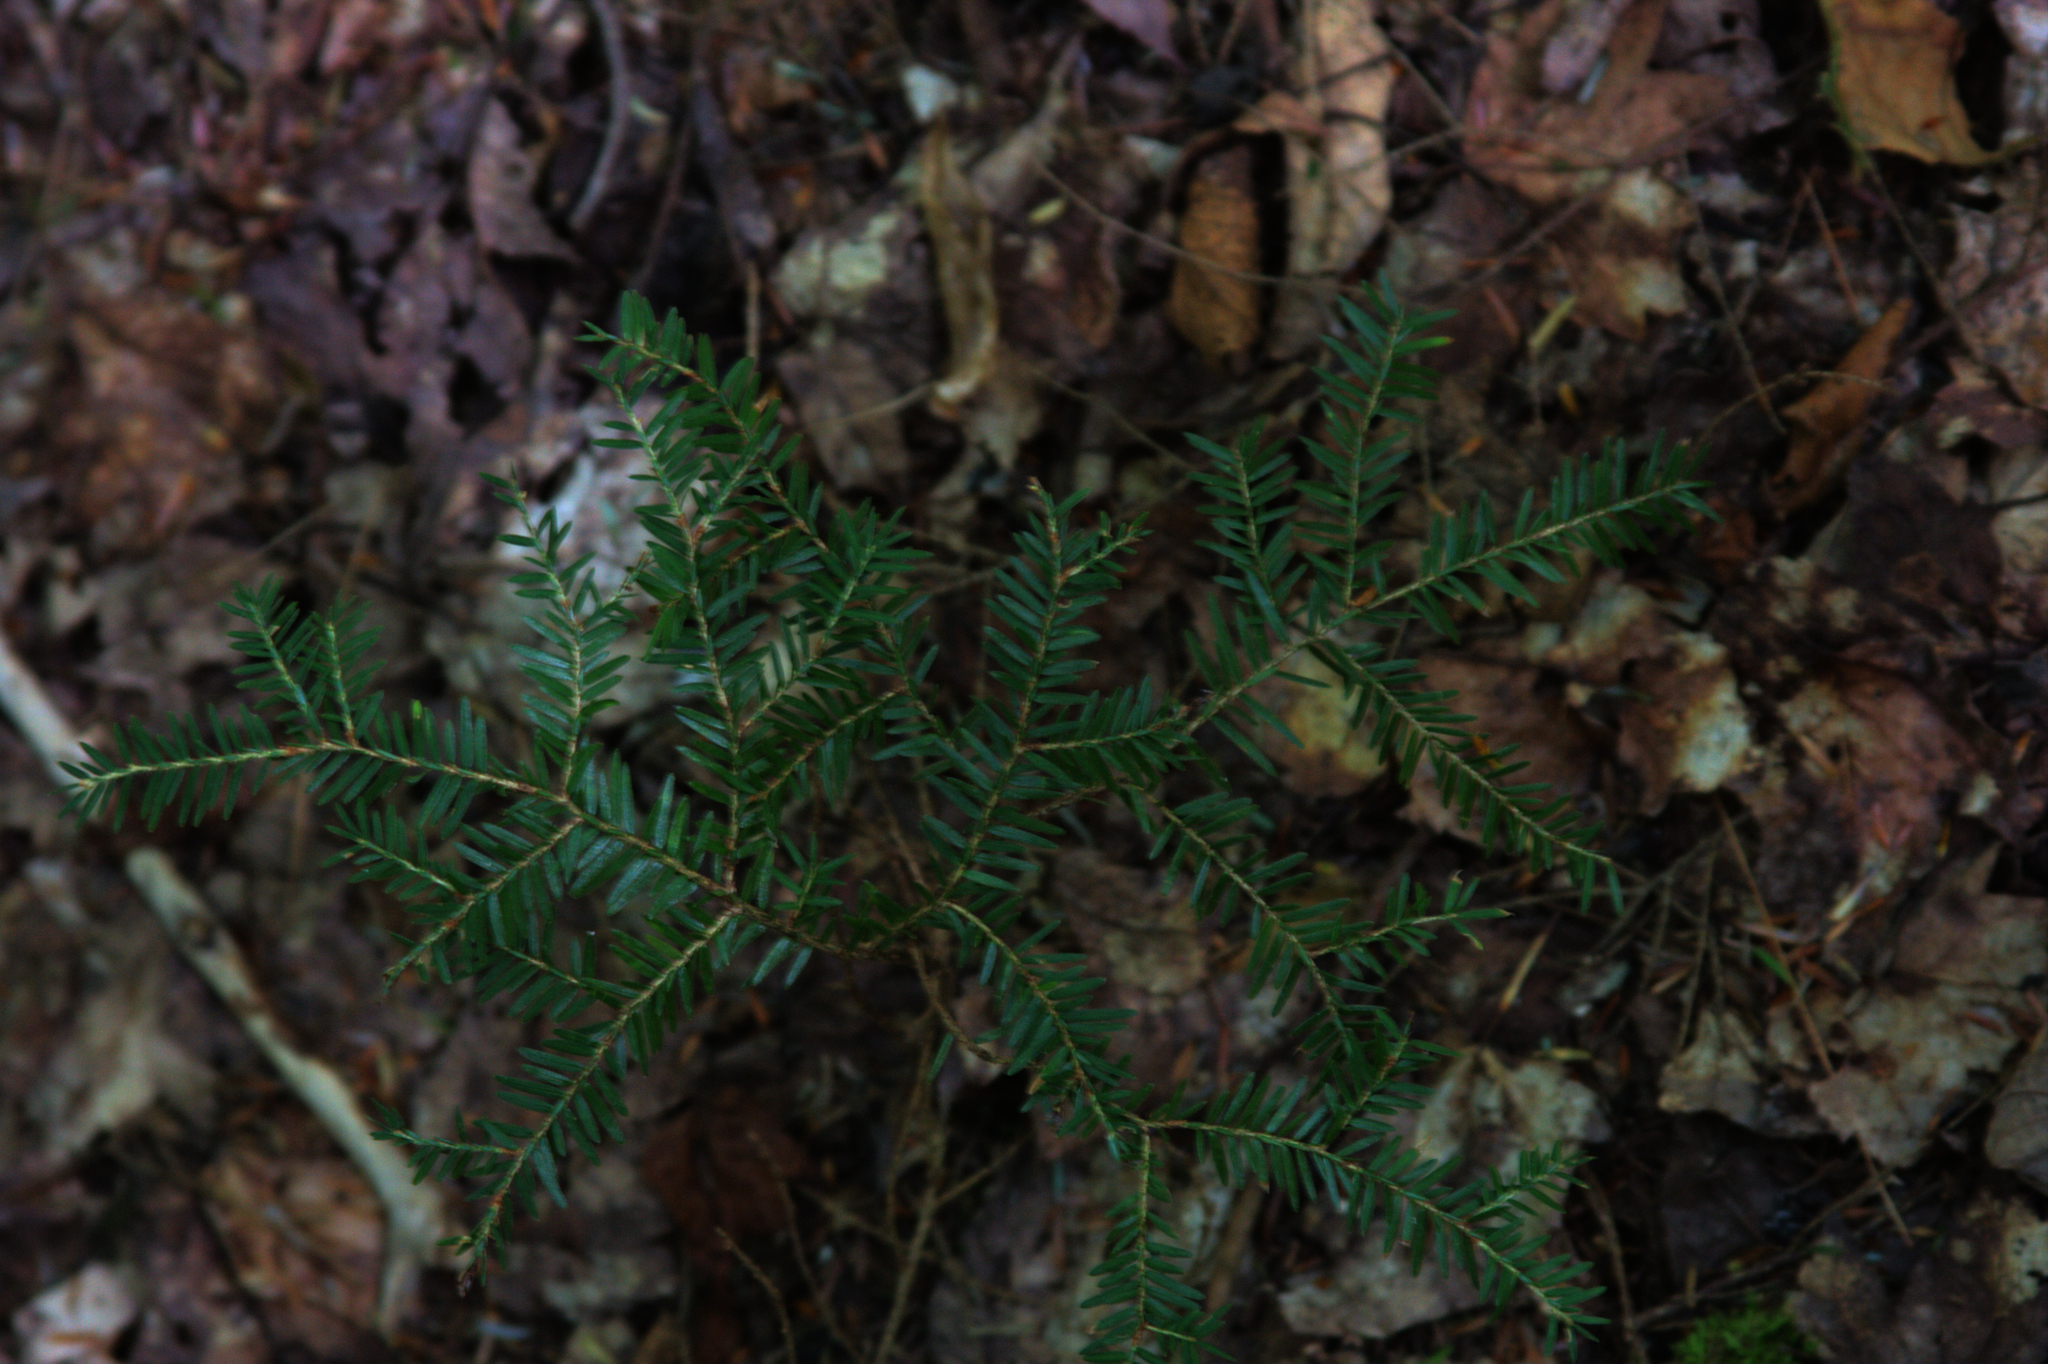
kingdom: Plantae
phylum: Tracheophyta
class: Pinopsida
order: Pinales
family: Pinaceae
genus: Tsuga
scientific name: Tsuga canadensis
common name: Eastern hemlock
